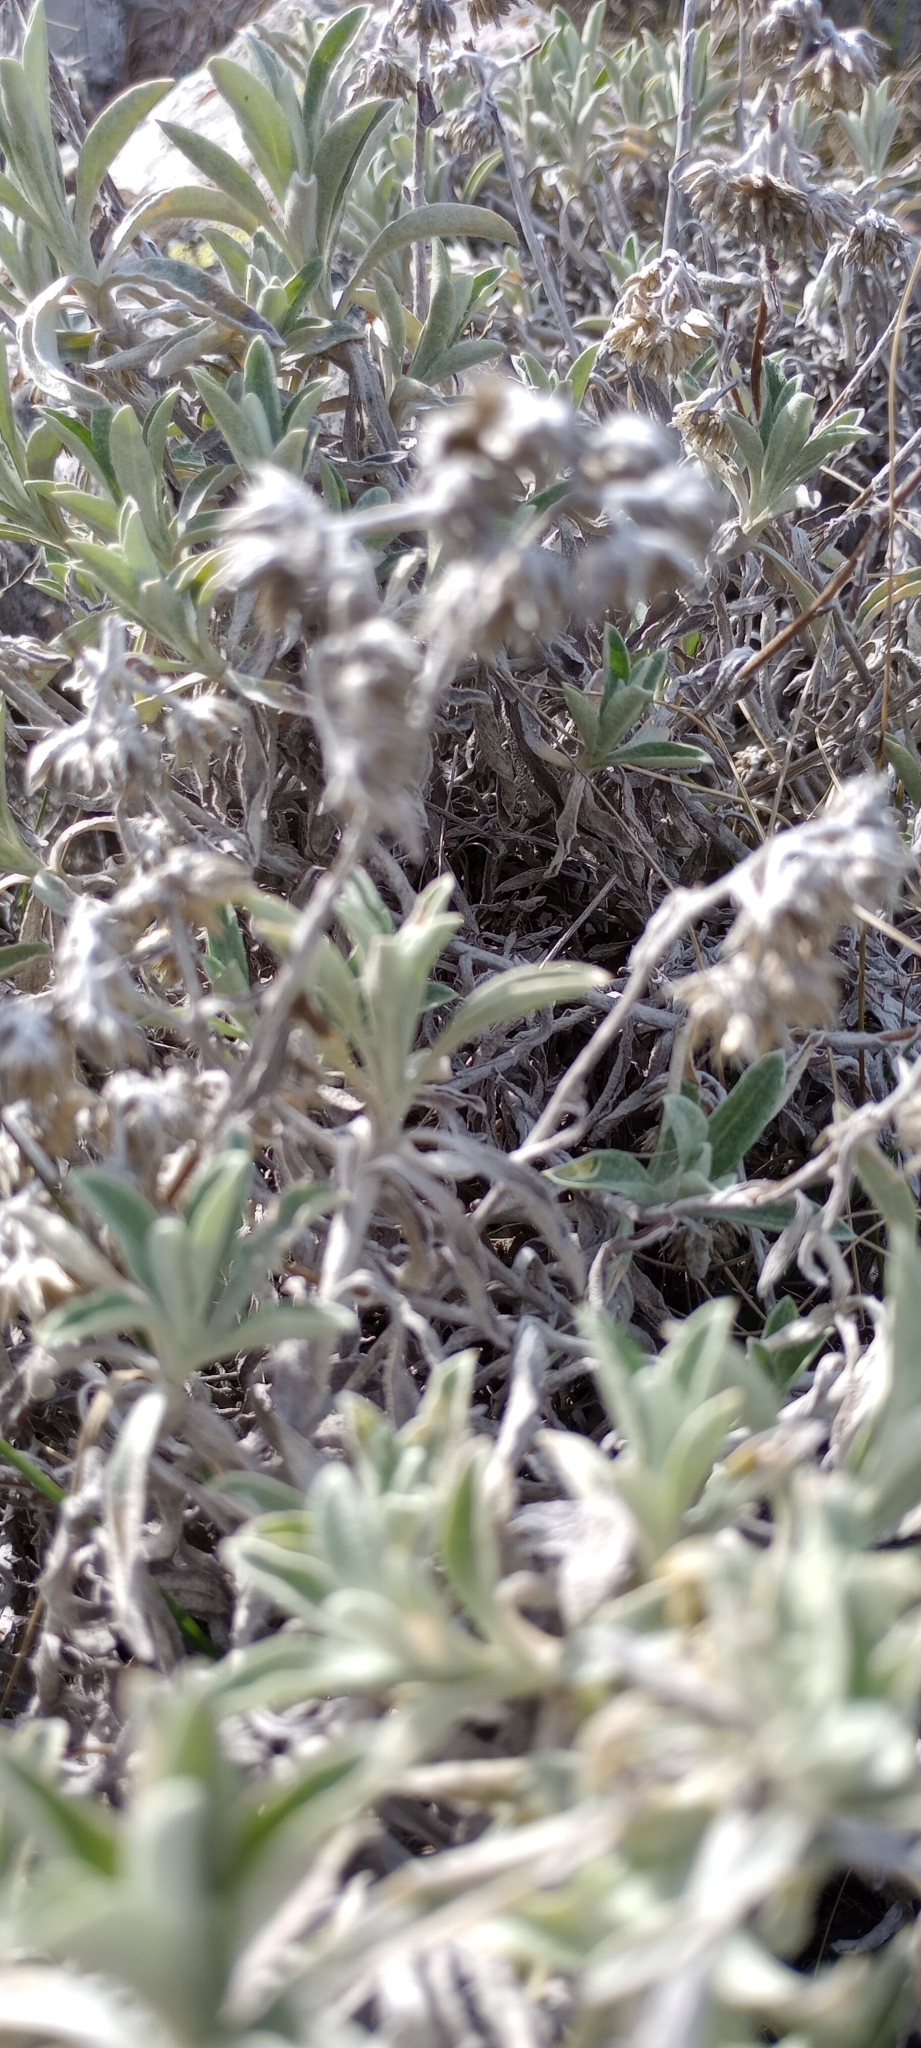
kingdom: Plantae
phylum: Tracheophyta
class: Magnoliopsida
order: Asterales
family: Asteraceae
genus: Achyrocline
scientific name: Achyrocline satureioides
